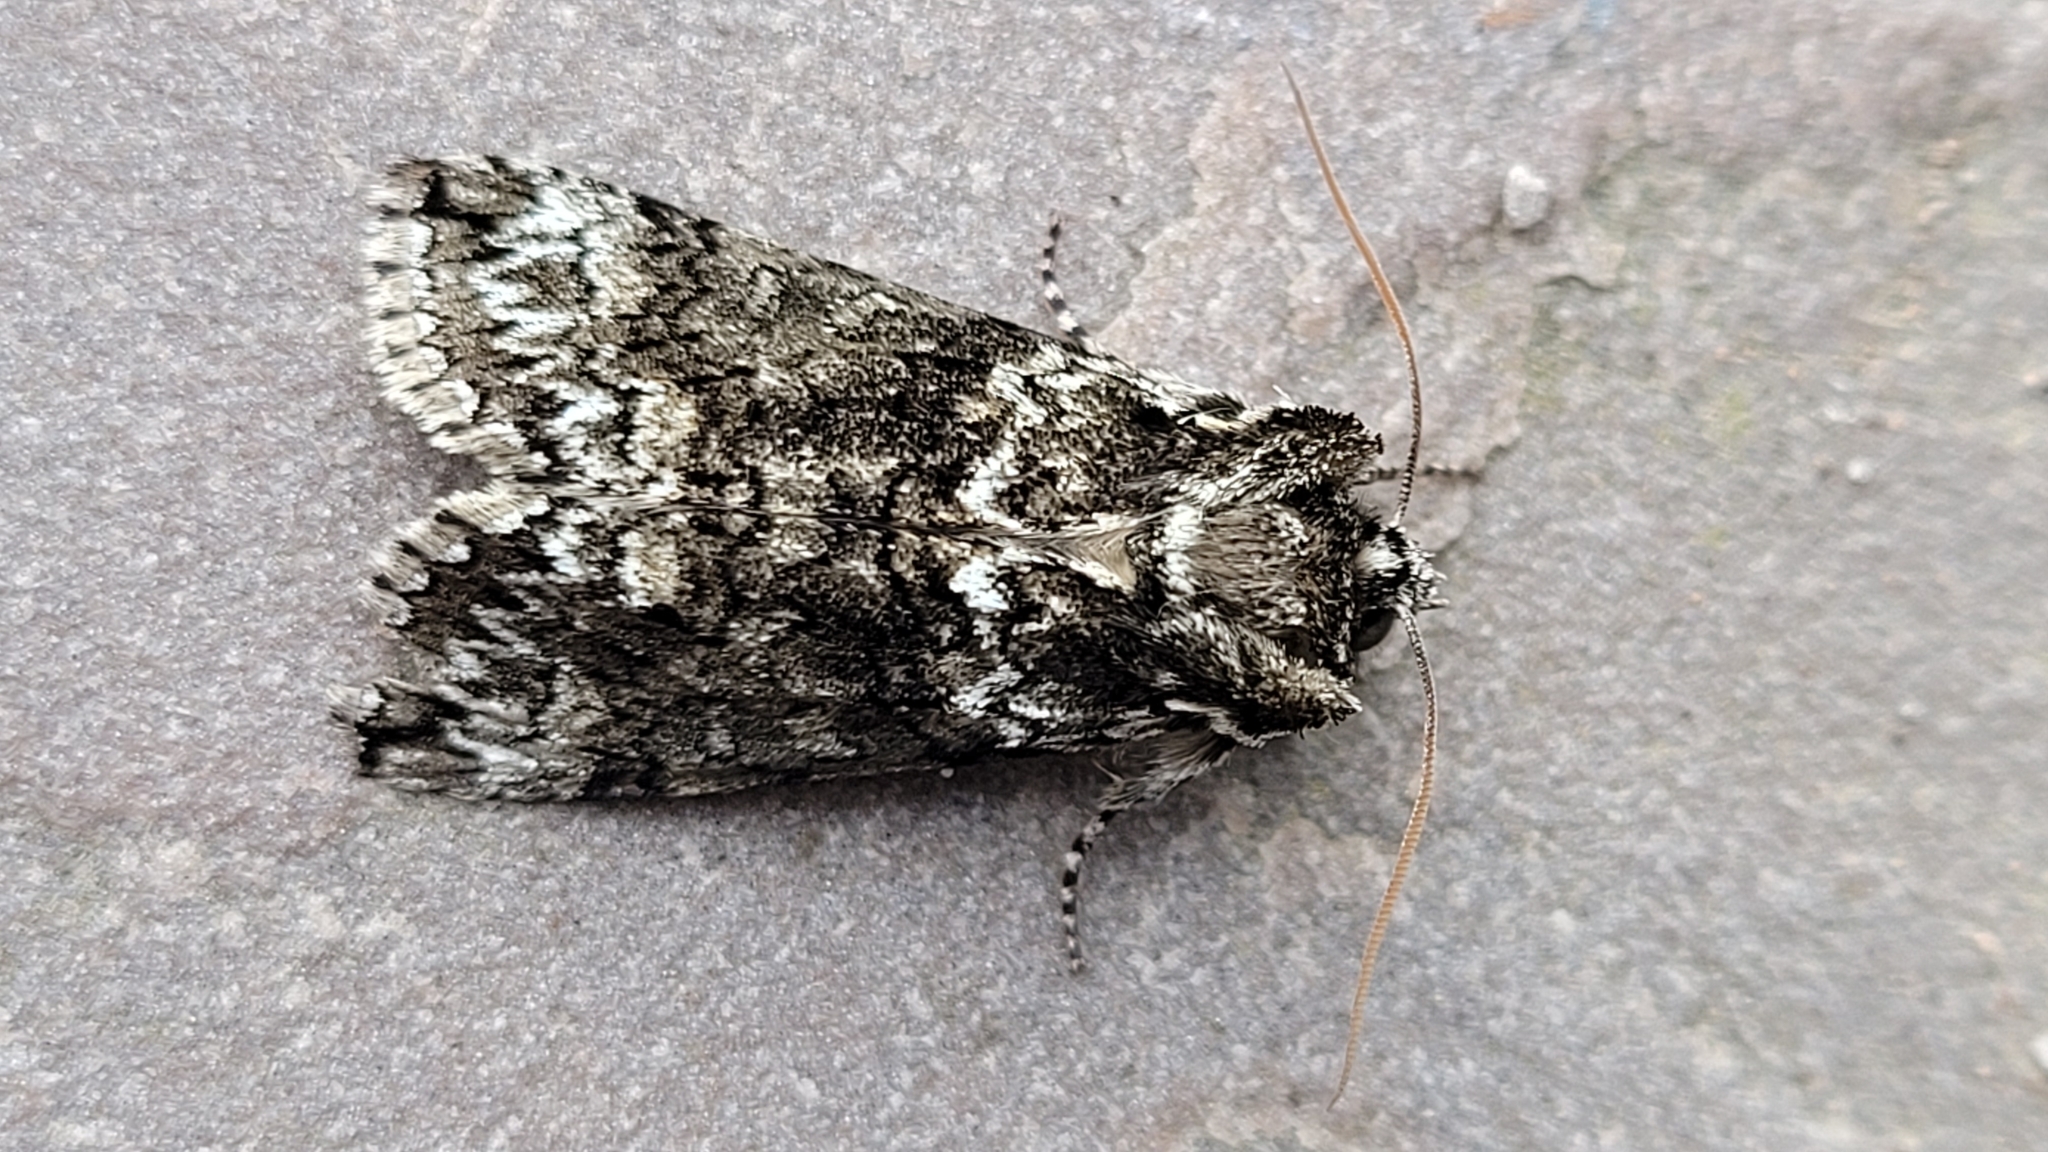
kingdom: Animalia
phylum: Arthropoda
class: Insecta
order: Lepidoptera
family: Drepanidae
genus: Polyploca
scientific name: Polyploca ridens
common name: Frosted green
